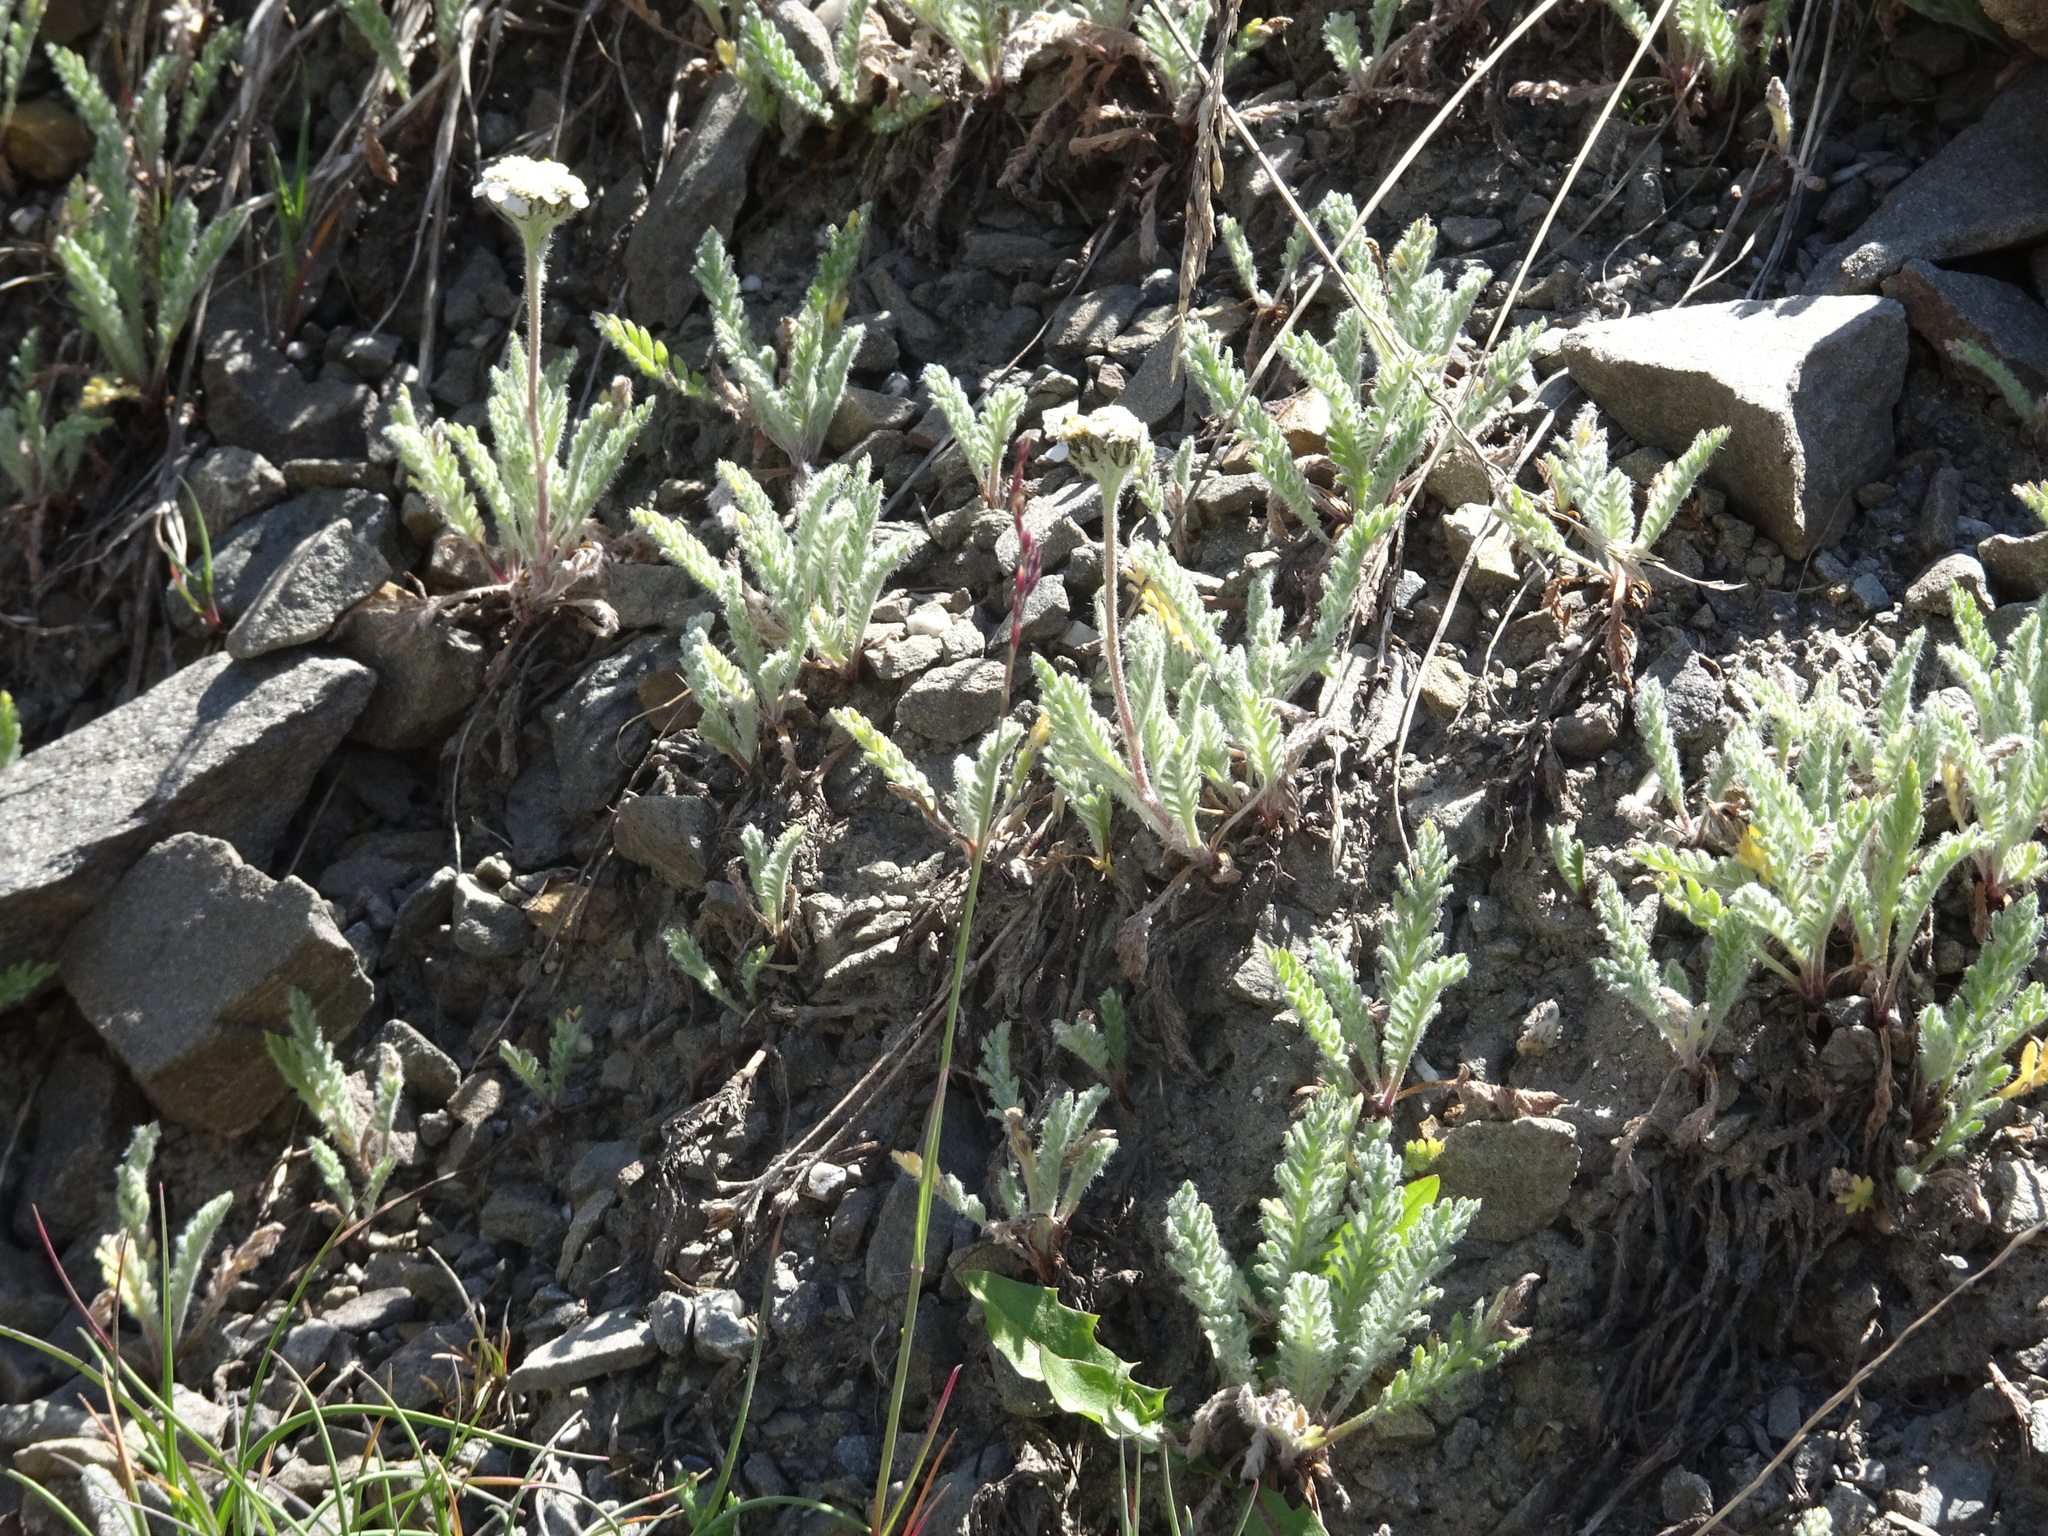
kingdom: Plantae
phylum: Tracheophyta
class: Magnoliopsida
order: Asterales
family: Asteraceae
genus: Achillea
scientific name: Achillea nana
